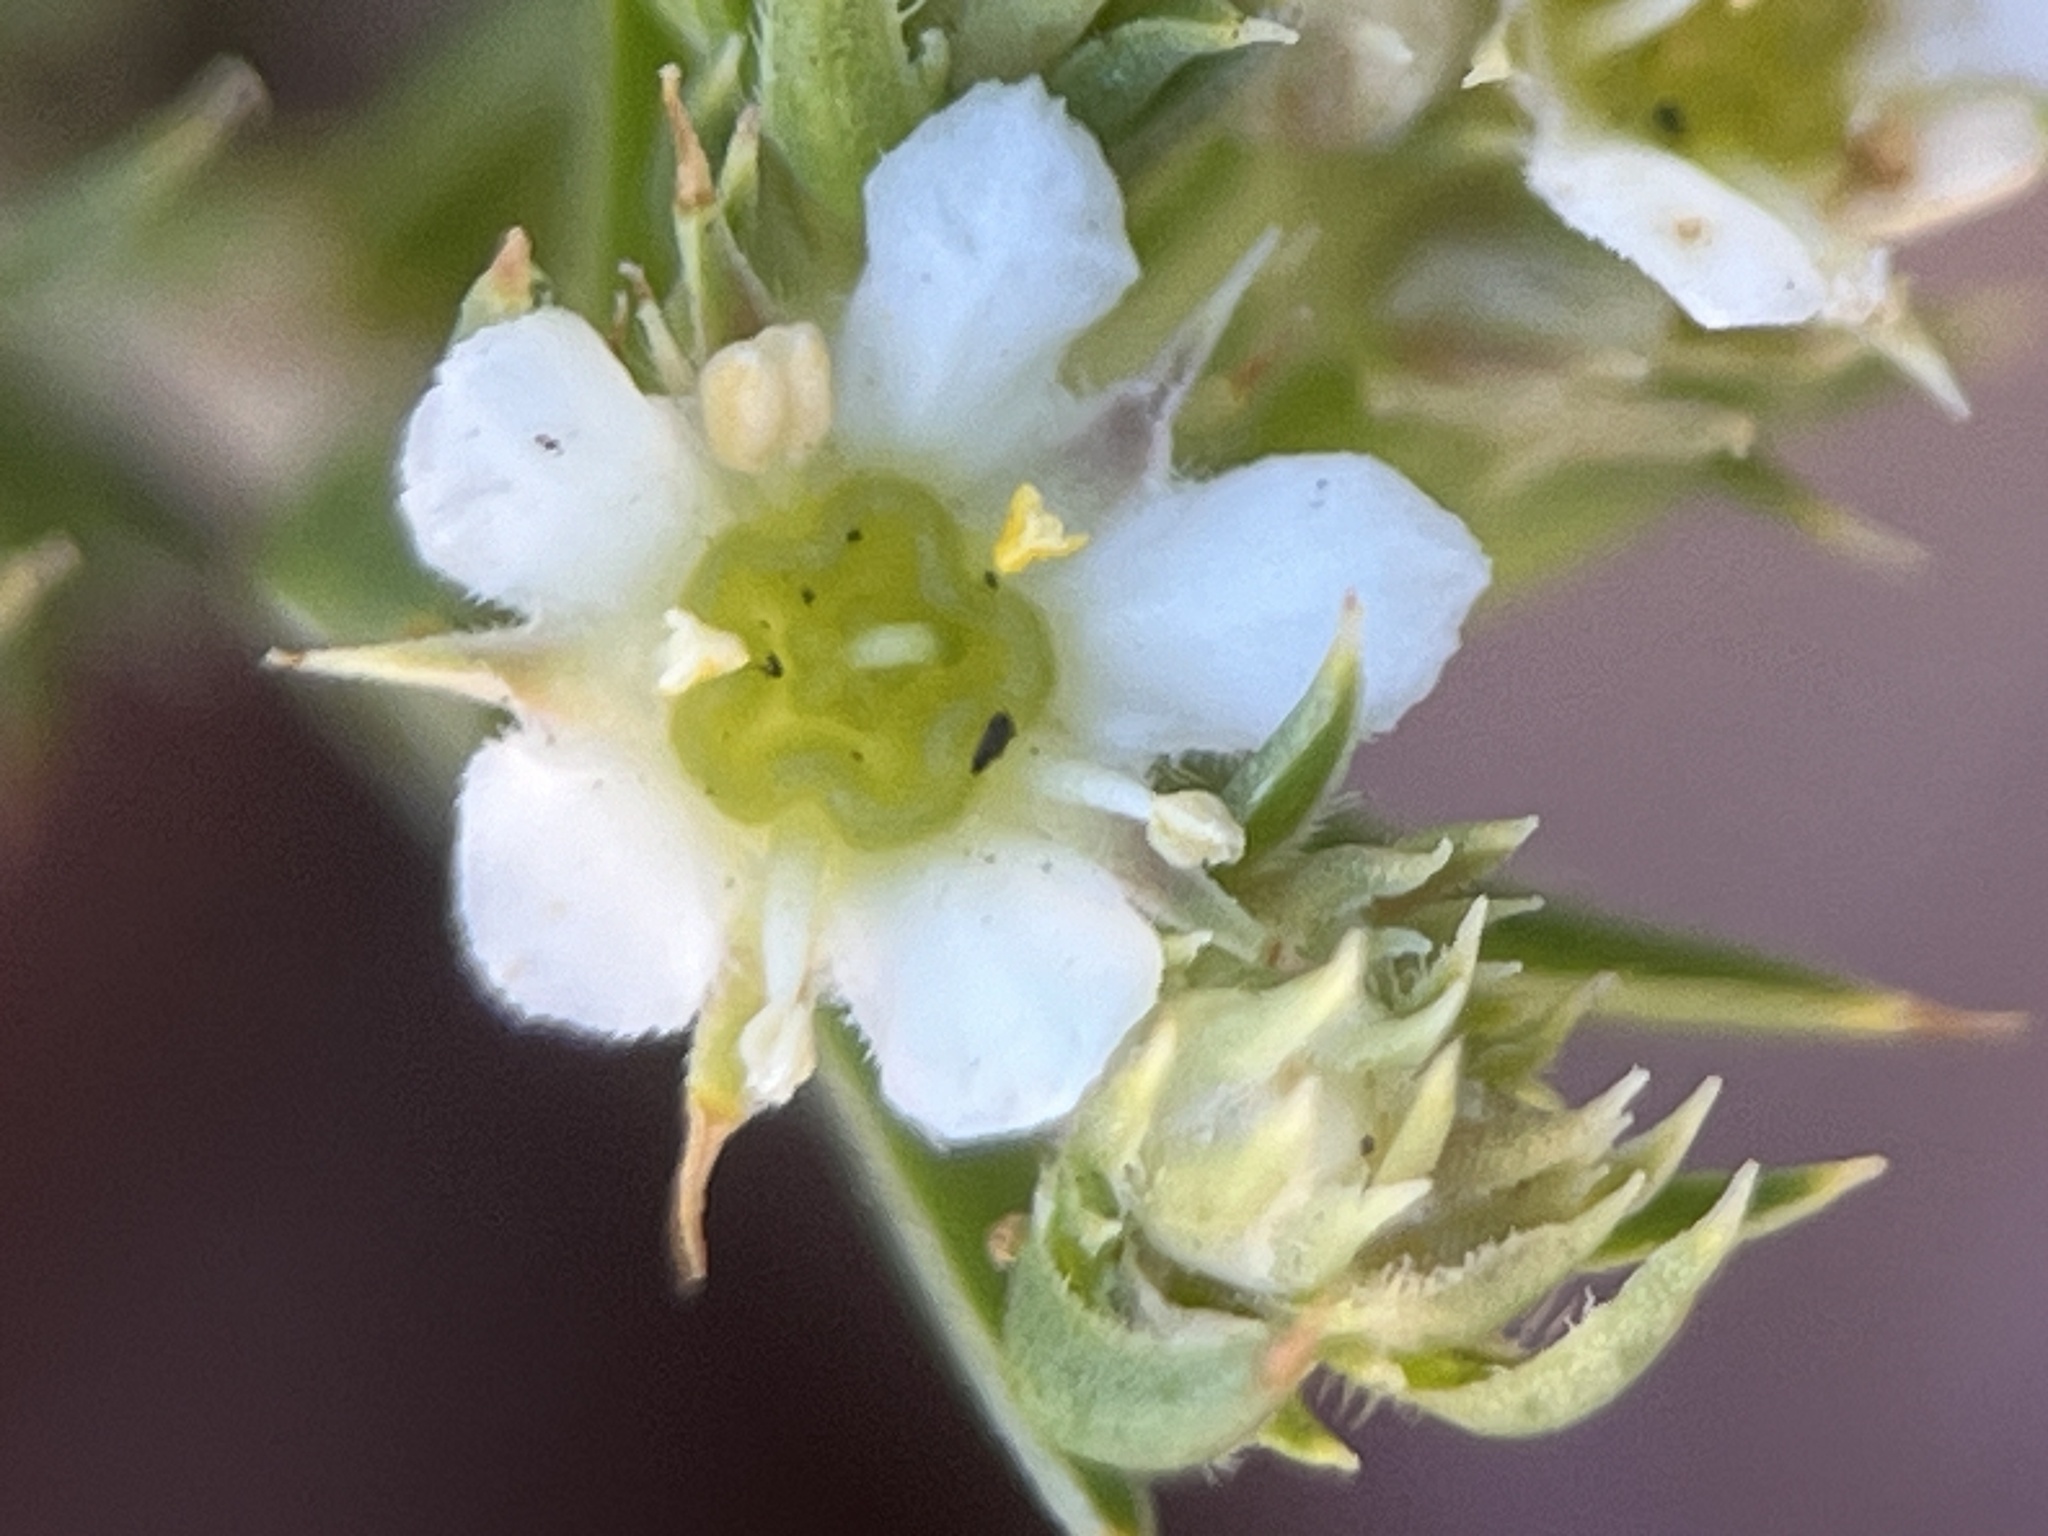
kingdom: Plantae
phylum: Tracheophyta
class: Magnoliopsida
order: Sapindales
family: Rutaceae
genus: Diosma
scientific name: Diosma subulata
